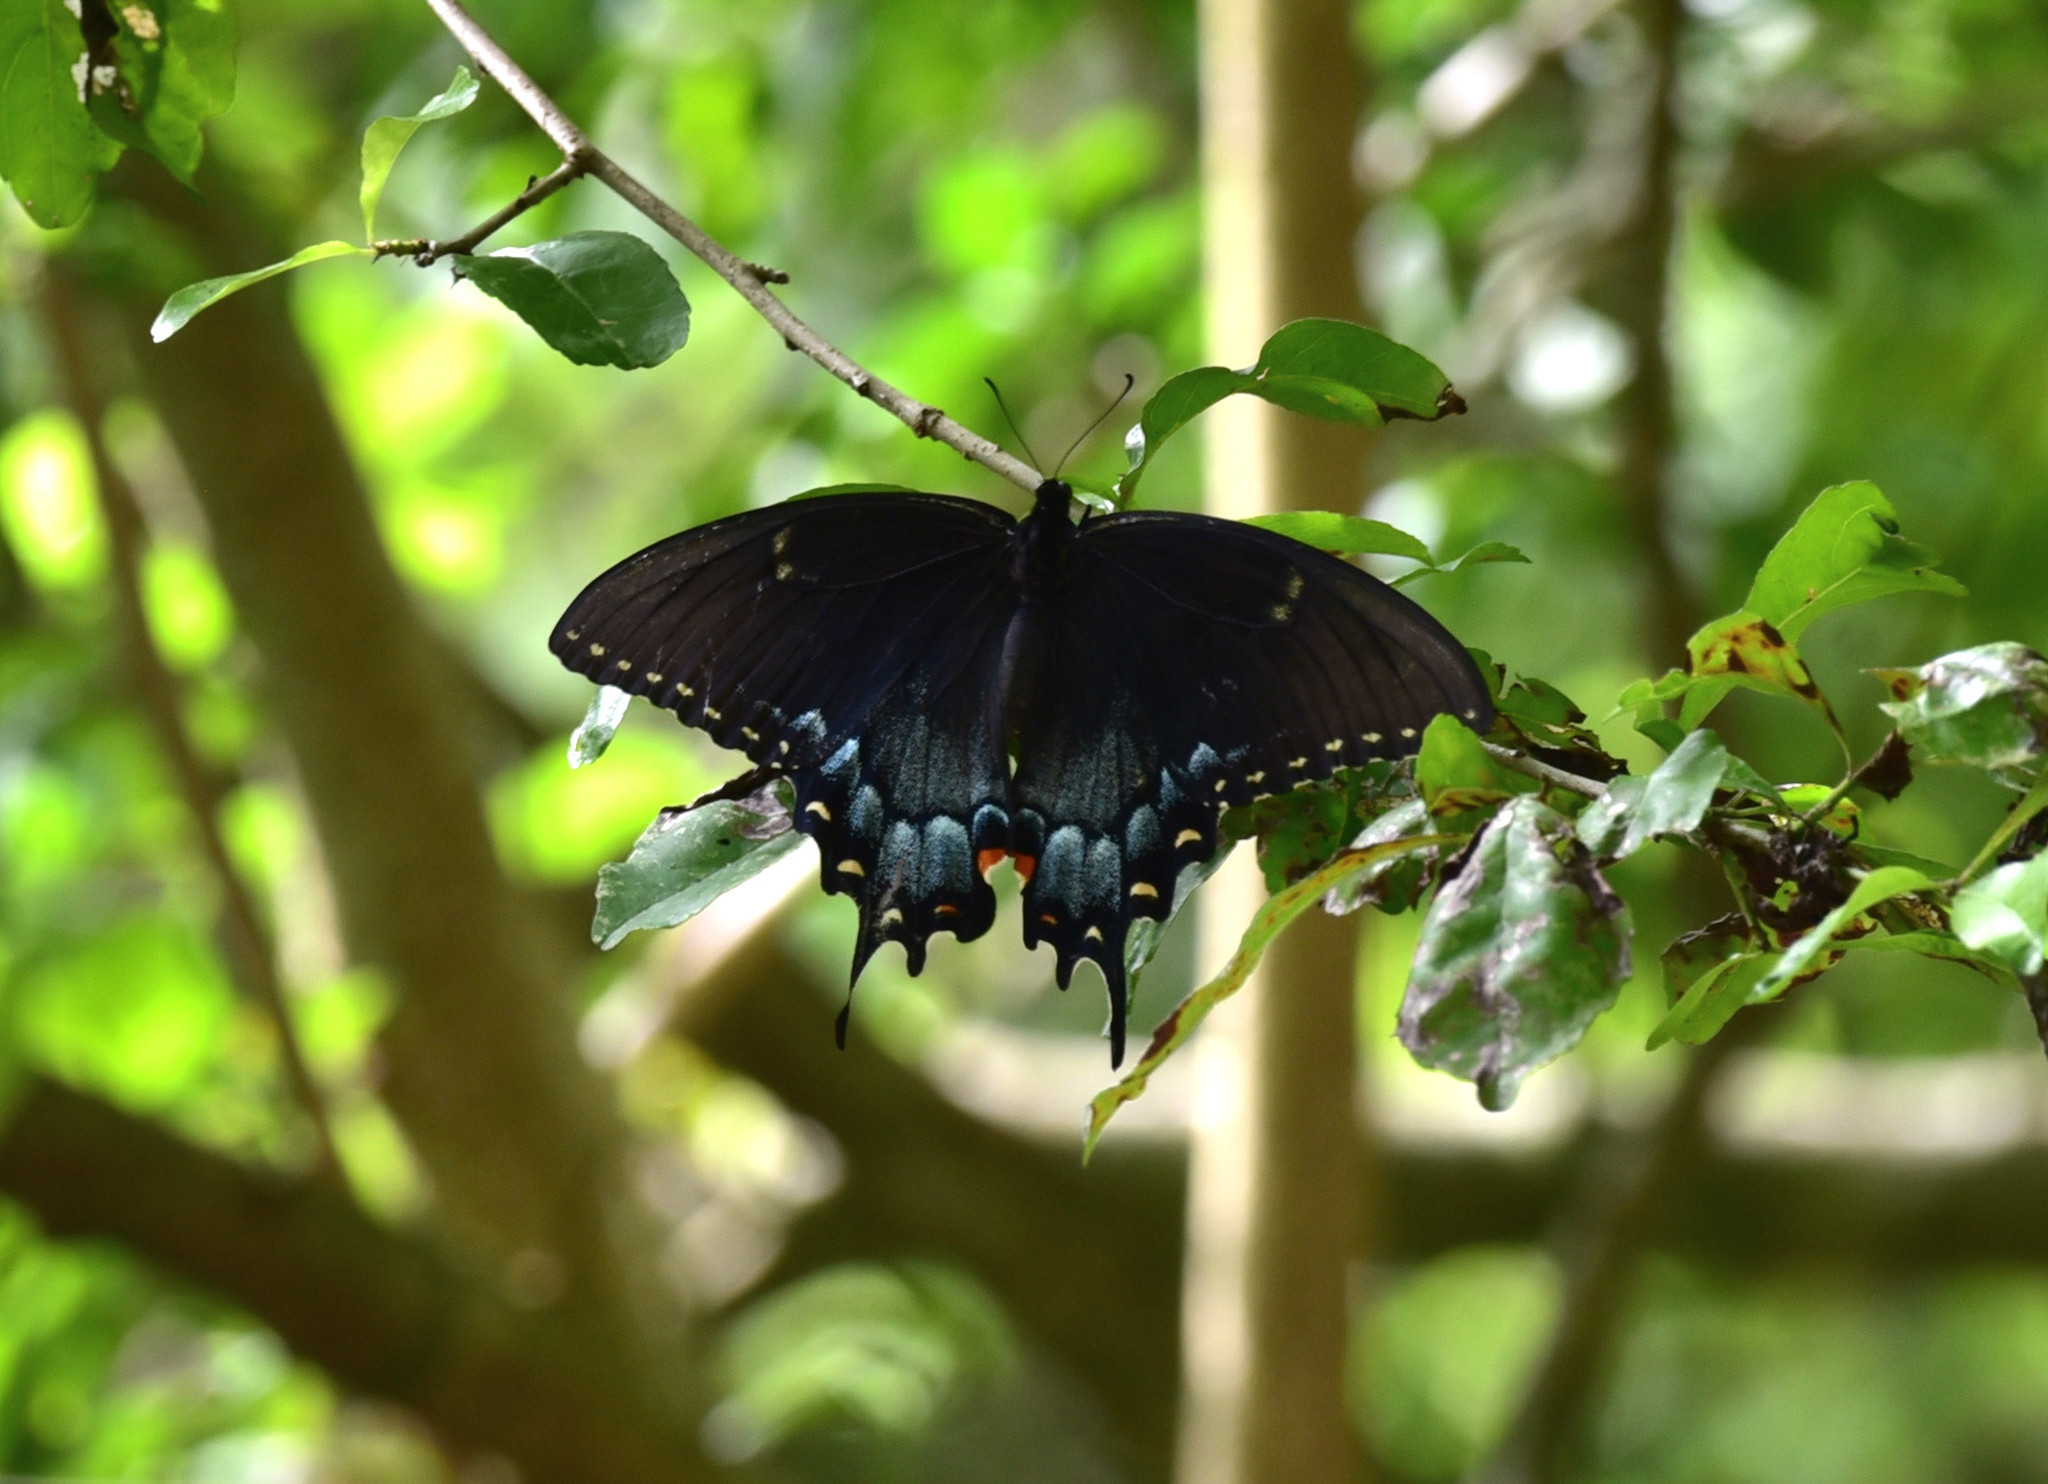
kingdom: Animalia
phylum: Arthropoda
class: Insecta
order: Lepidoptera
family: Papilionidae
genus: Papilio
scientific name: Papilio glaucus
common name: Tiger swallowtail
